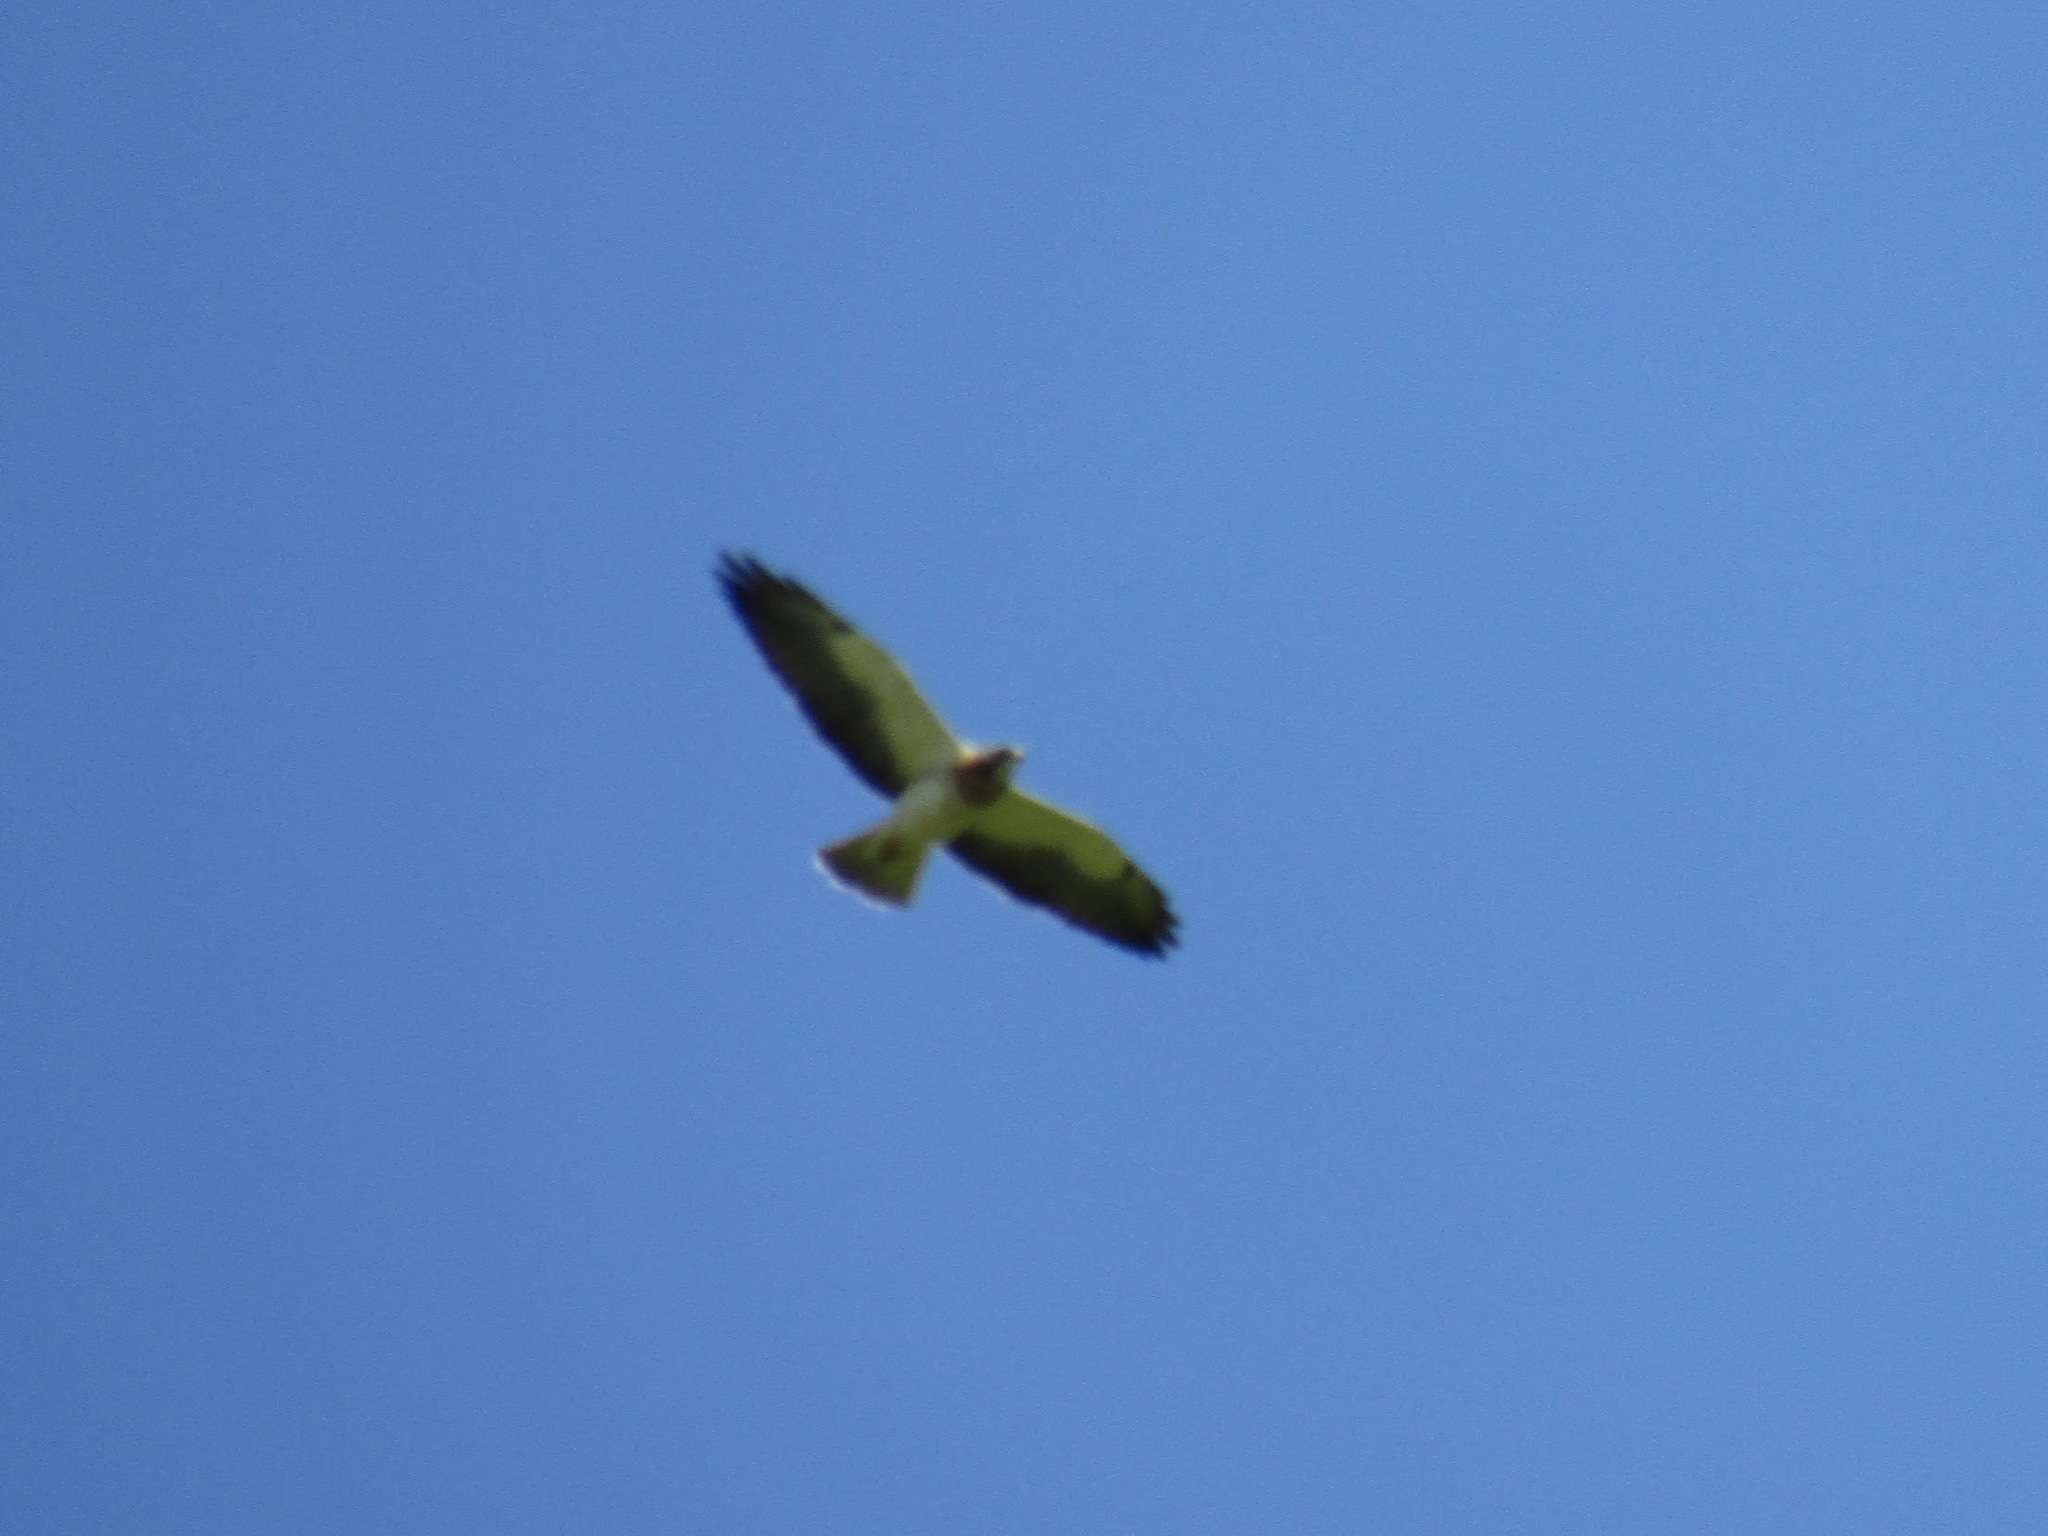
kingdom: Animalia
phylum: Chordata
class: Aves
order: Accipitriformes
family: Accipitridae
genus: Buteo
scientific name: Buteo swainsoni
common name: Swainson's hawk
